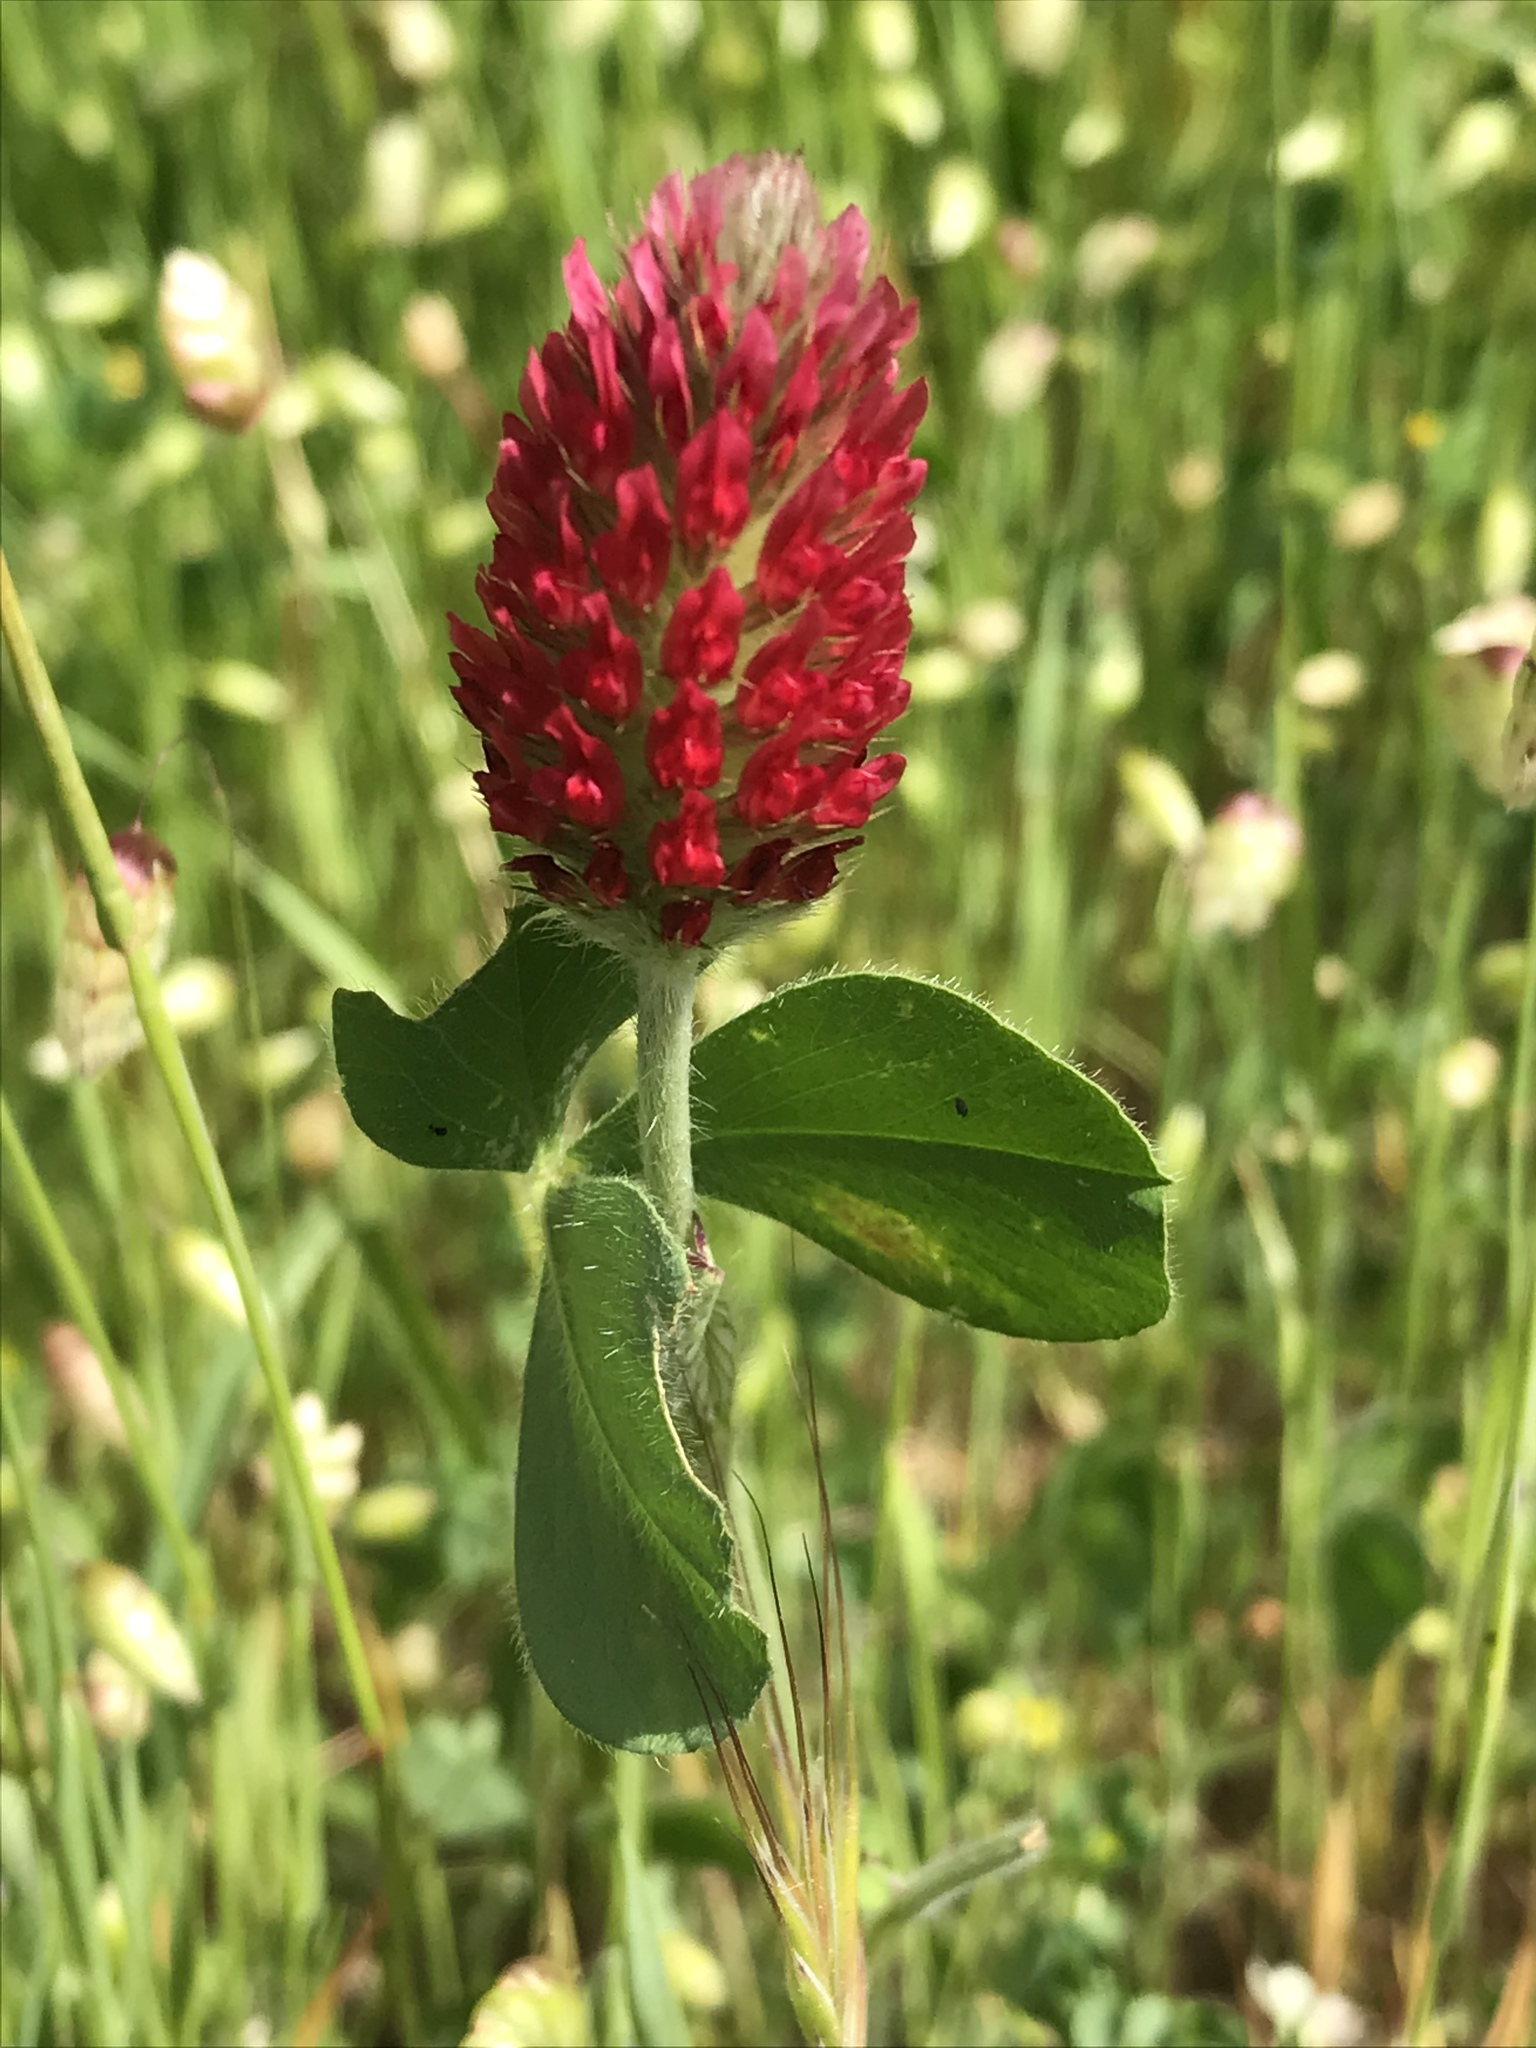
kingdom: Plantae
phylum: Tracheophyta
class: Magnoliopsida
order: Fabales
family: Fabaceae
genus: Trifolium
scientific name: Trifolium incarnatum
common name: Crimson clover
